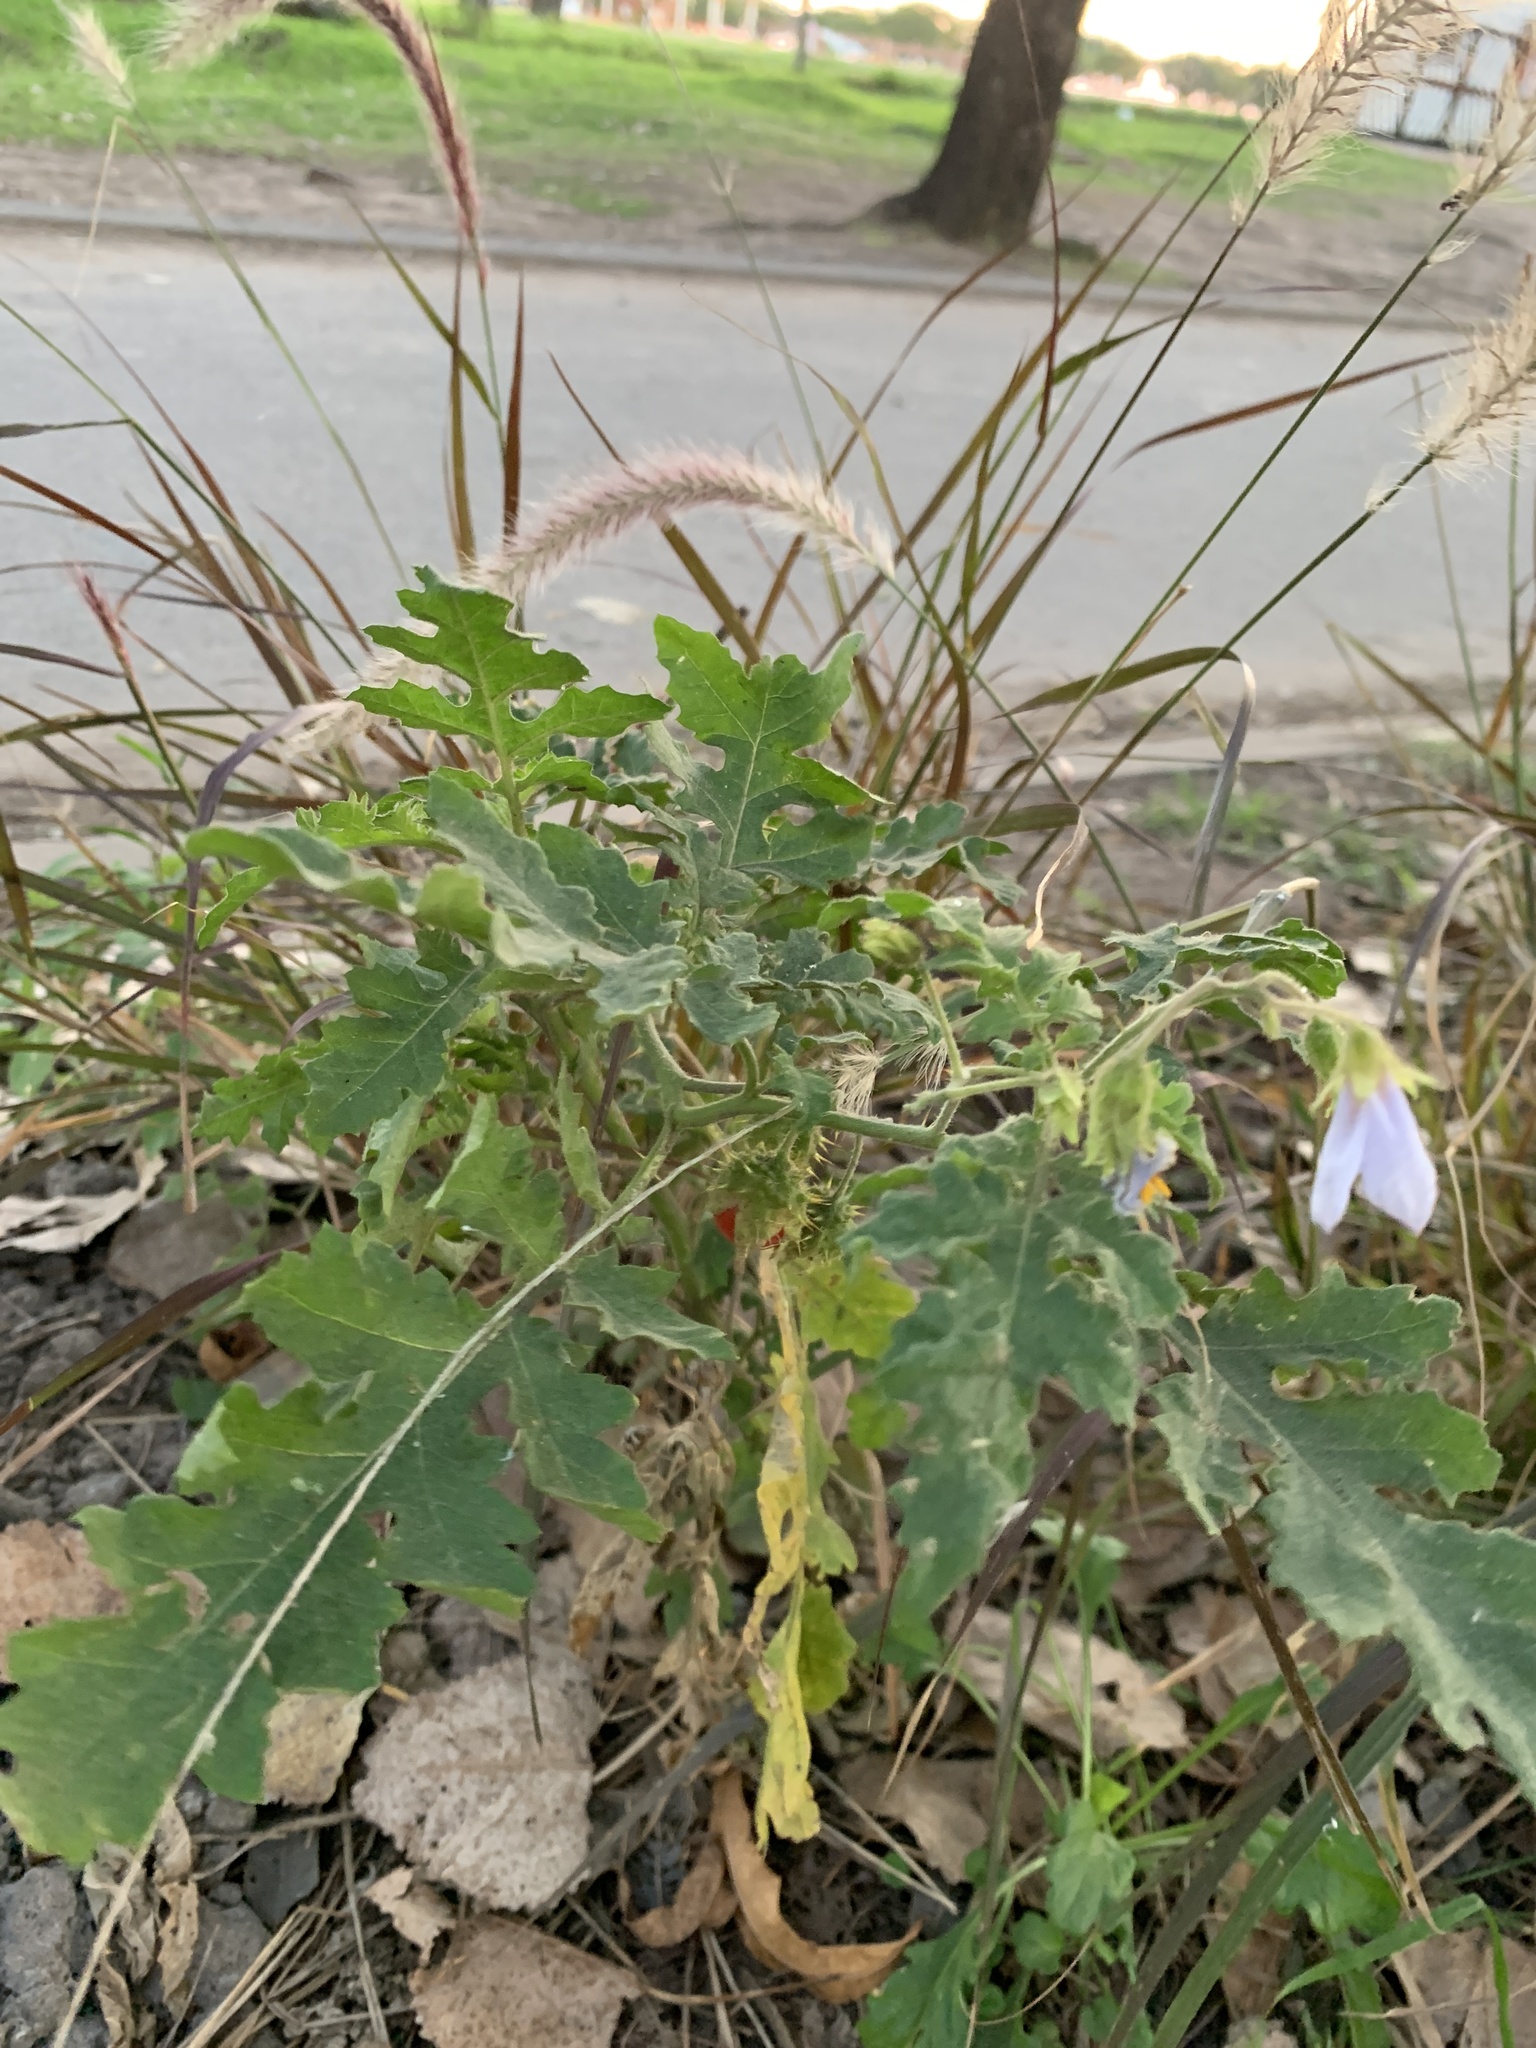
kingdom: Plantae
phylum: Tracheophyta
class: Magnoliopsida
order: Solanales
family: Solanaceae
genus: Solanum
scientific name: Solanum sisymbriifolium
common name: Red buffalo-bur
